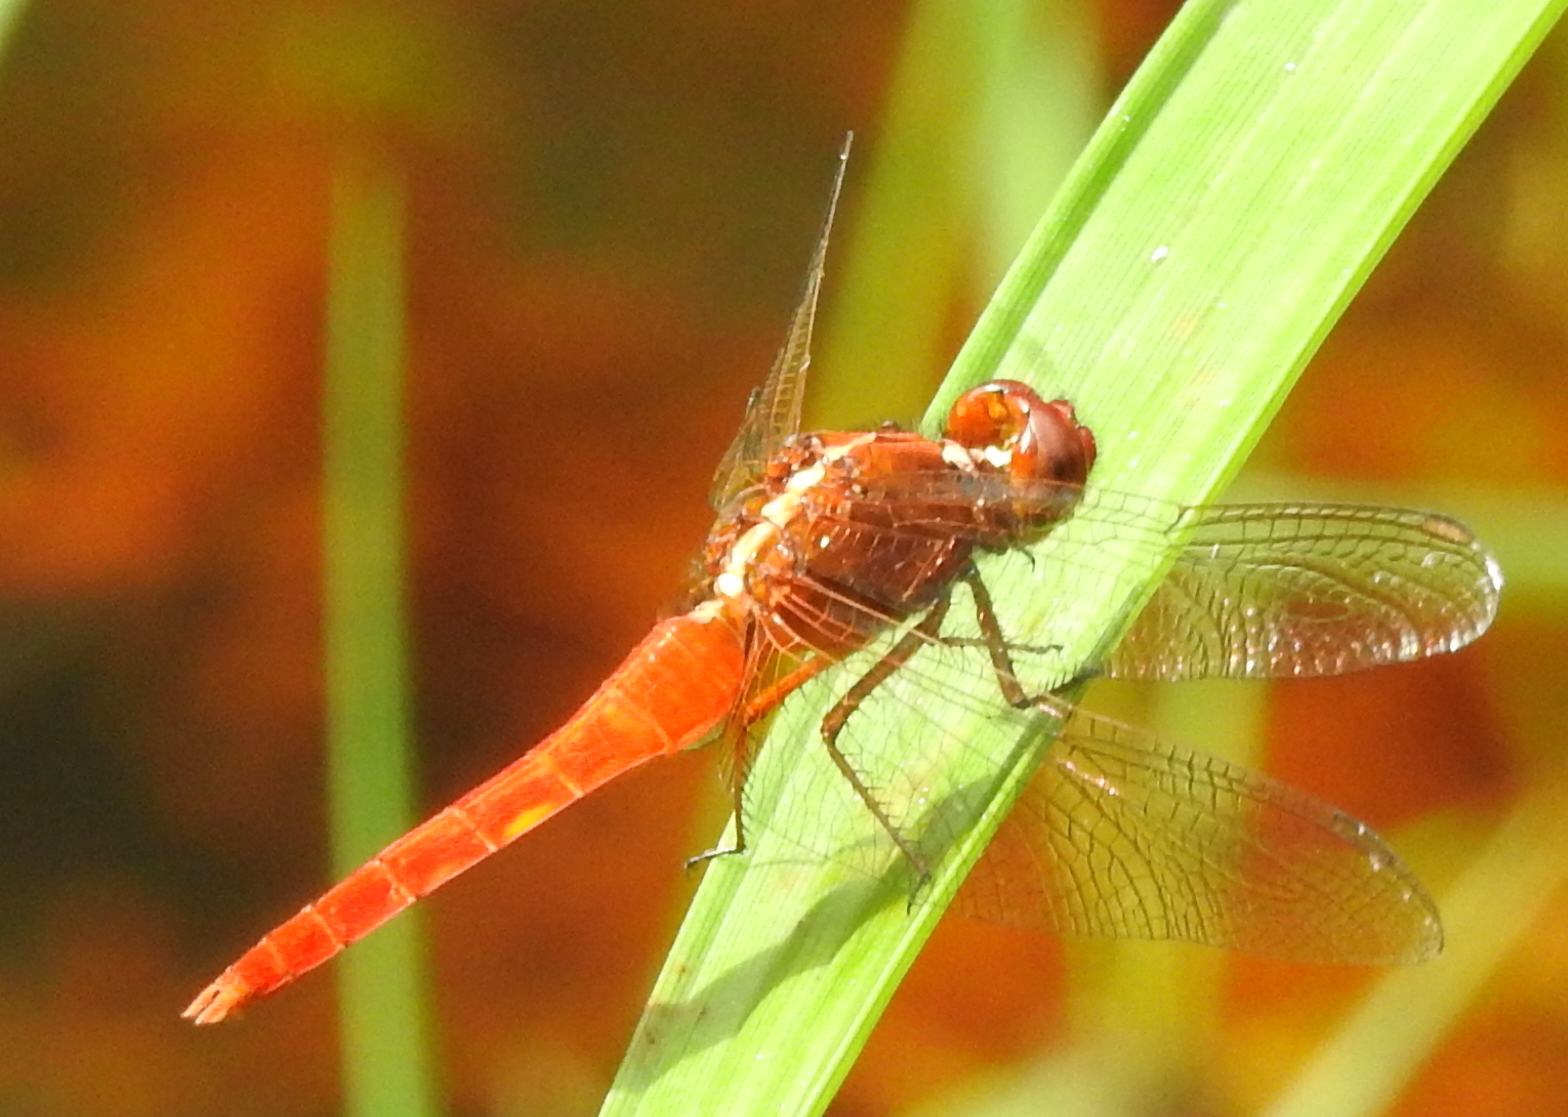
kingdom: Animalia
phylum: Arthropoda
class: Insecta
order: Odonata
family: Libellulidae
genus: Rhodothemis
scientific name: Rhodothemis rufa
